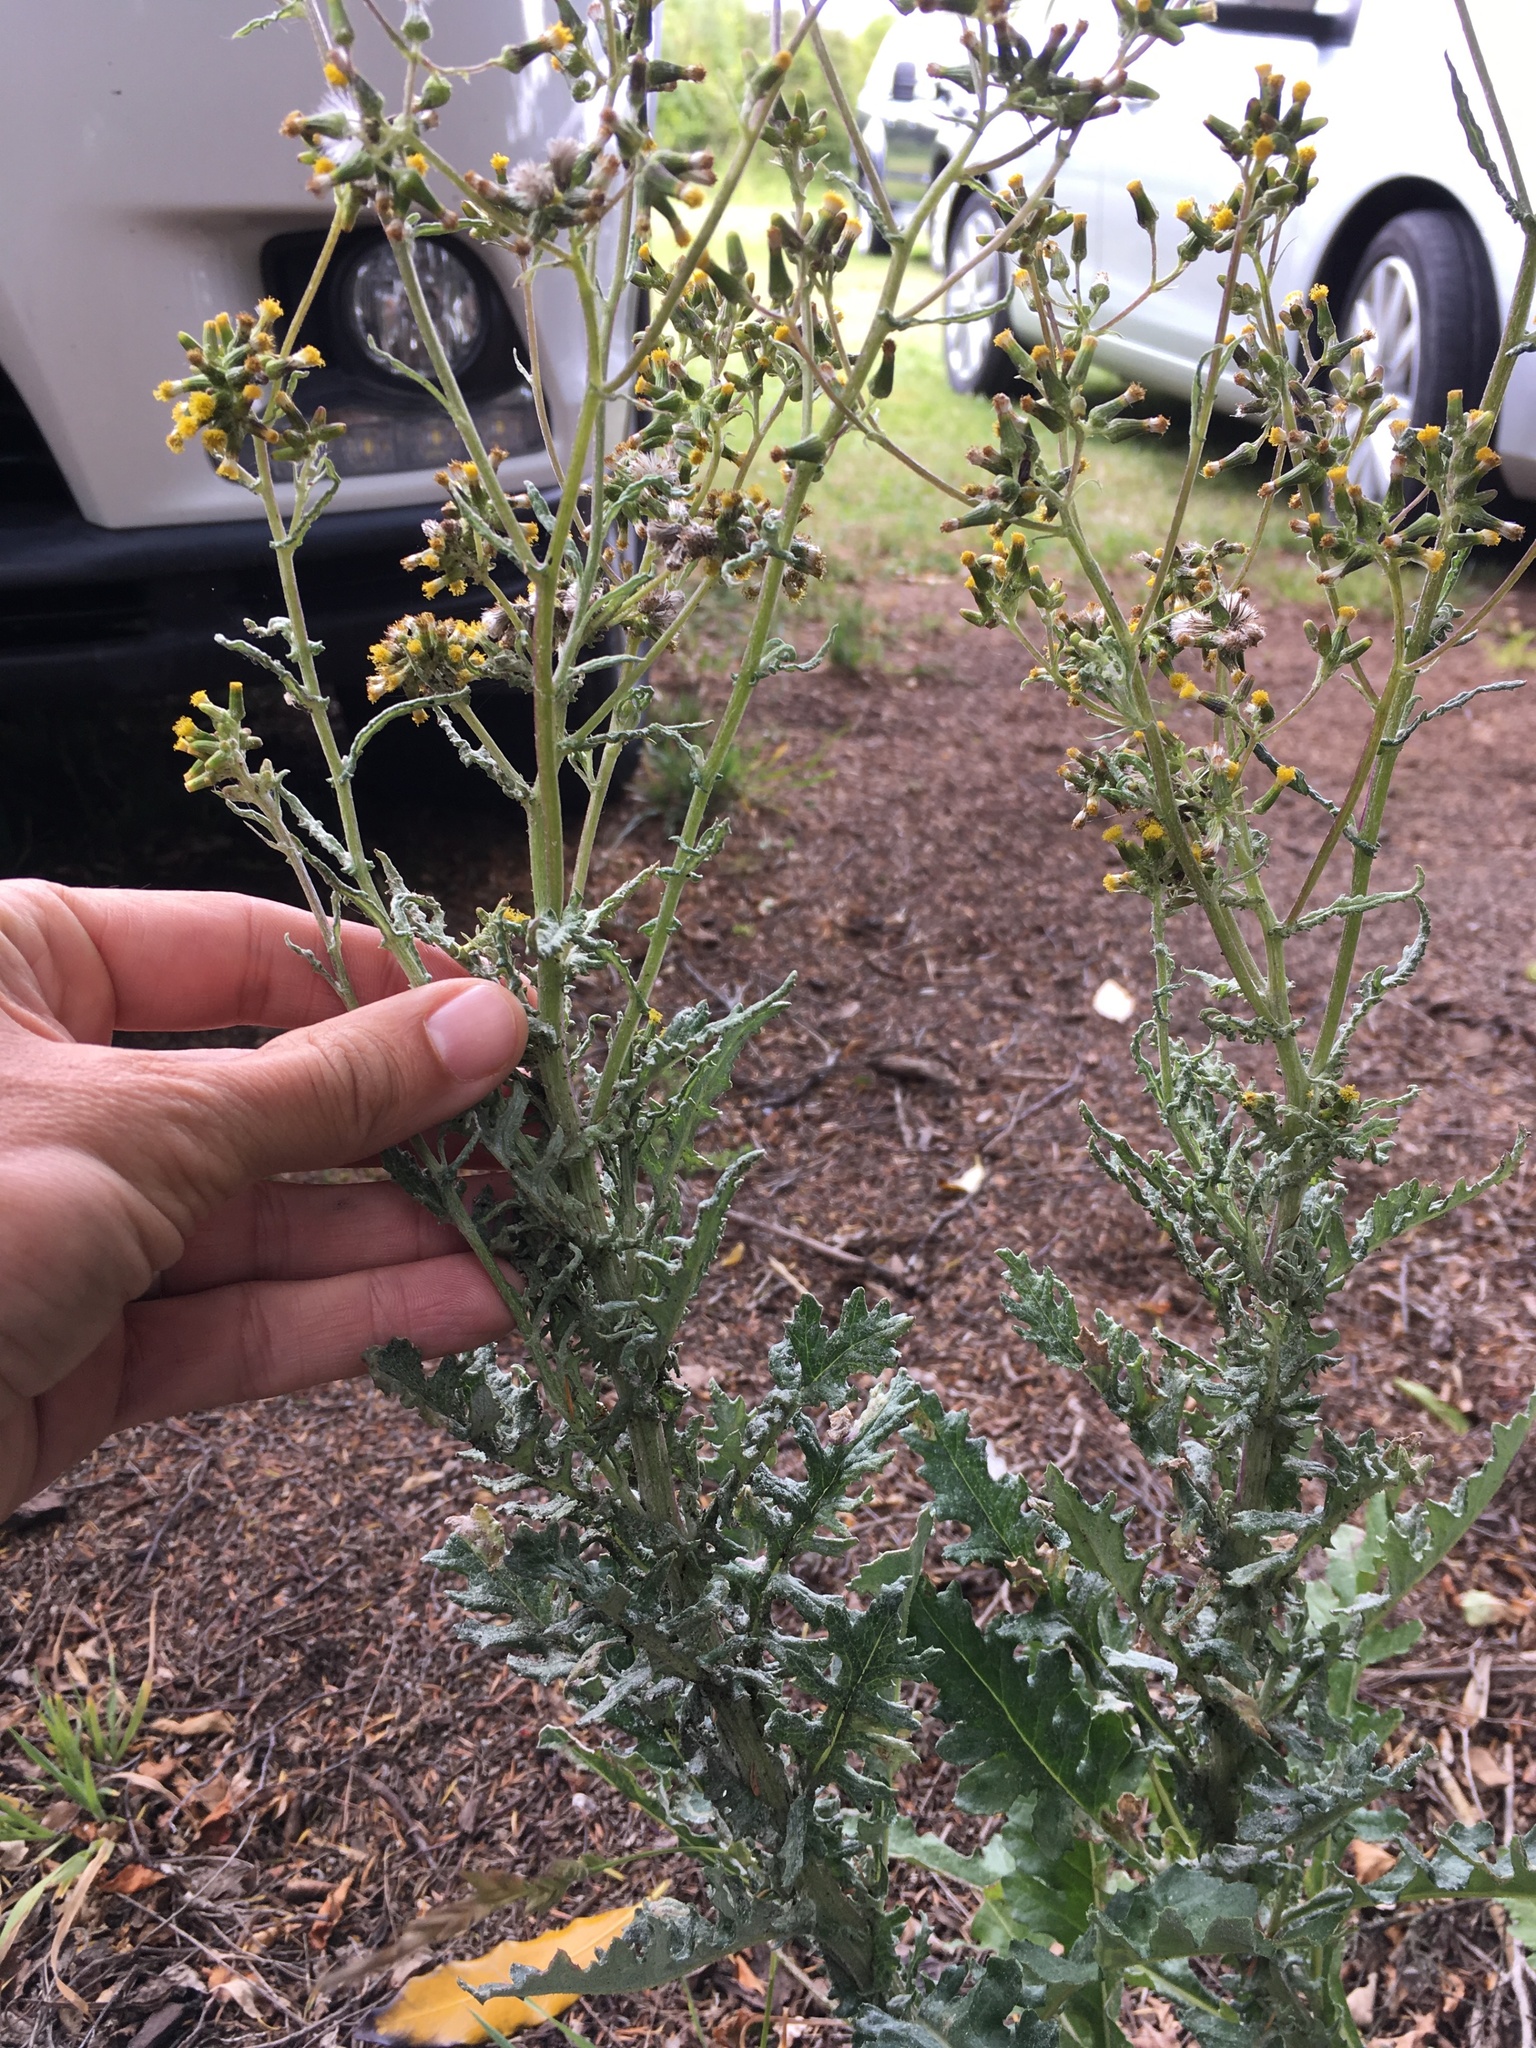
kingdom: Plantae
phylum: Tracheophyta
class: Magnoliopsida
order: Asterales
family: Asteraceae
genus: Senecio
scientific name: Senecio glomeratus
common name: Cutleaf burnweed
